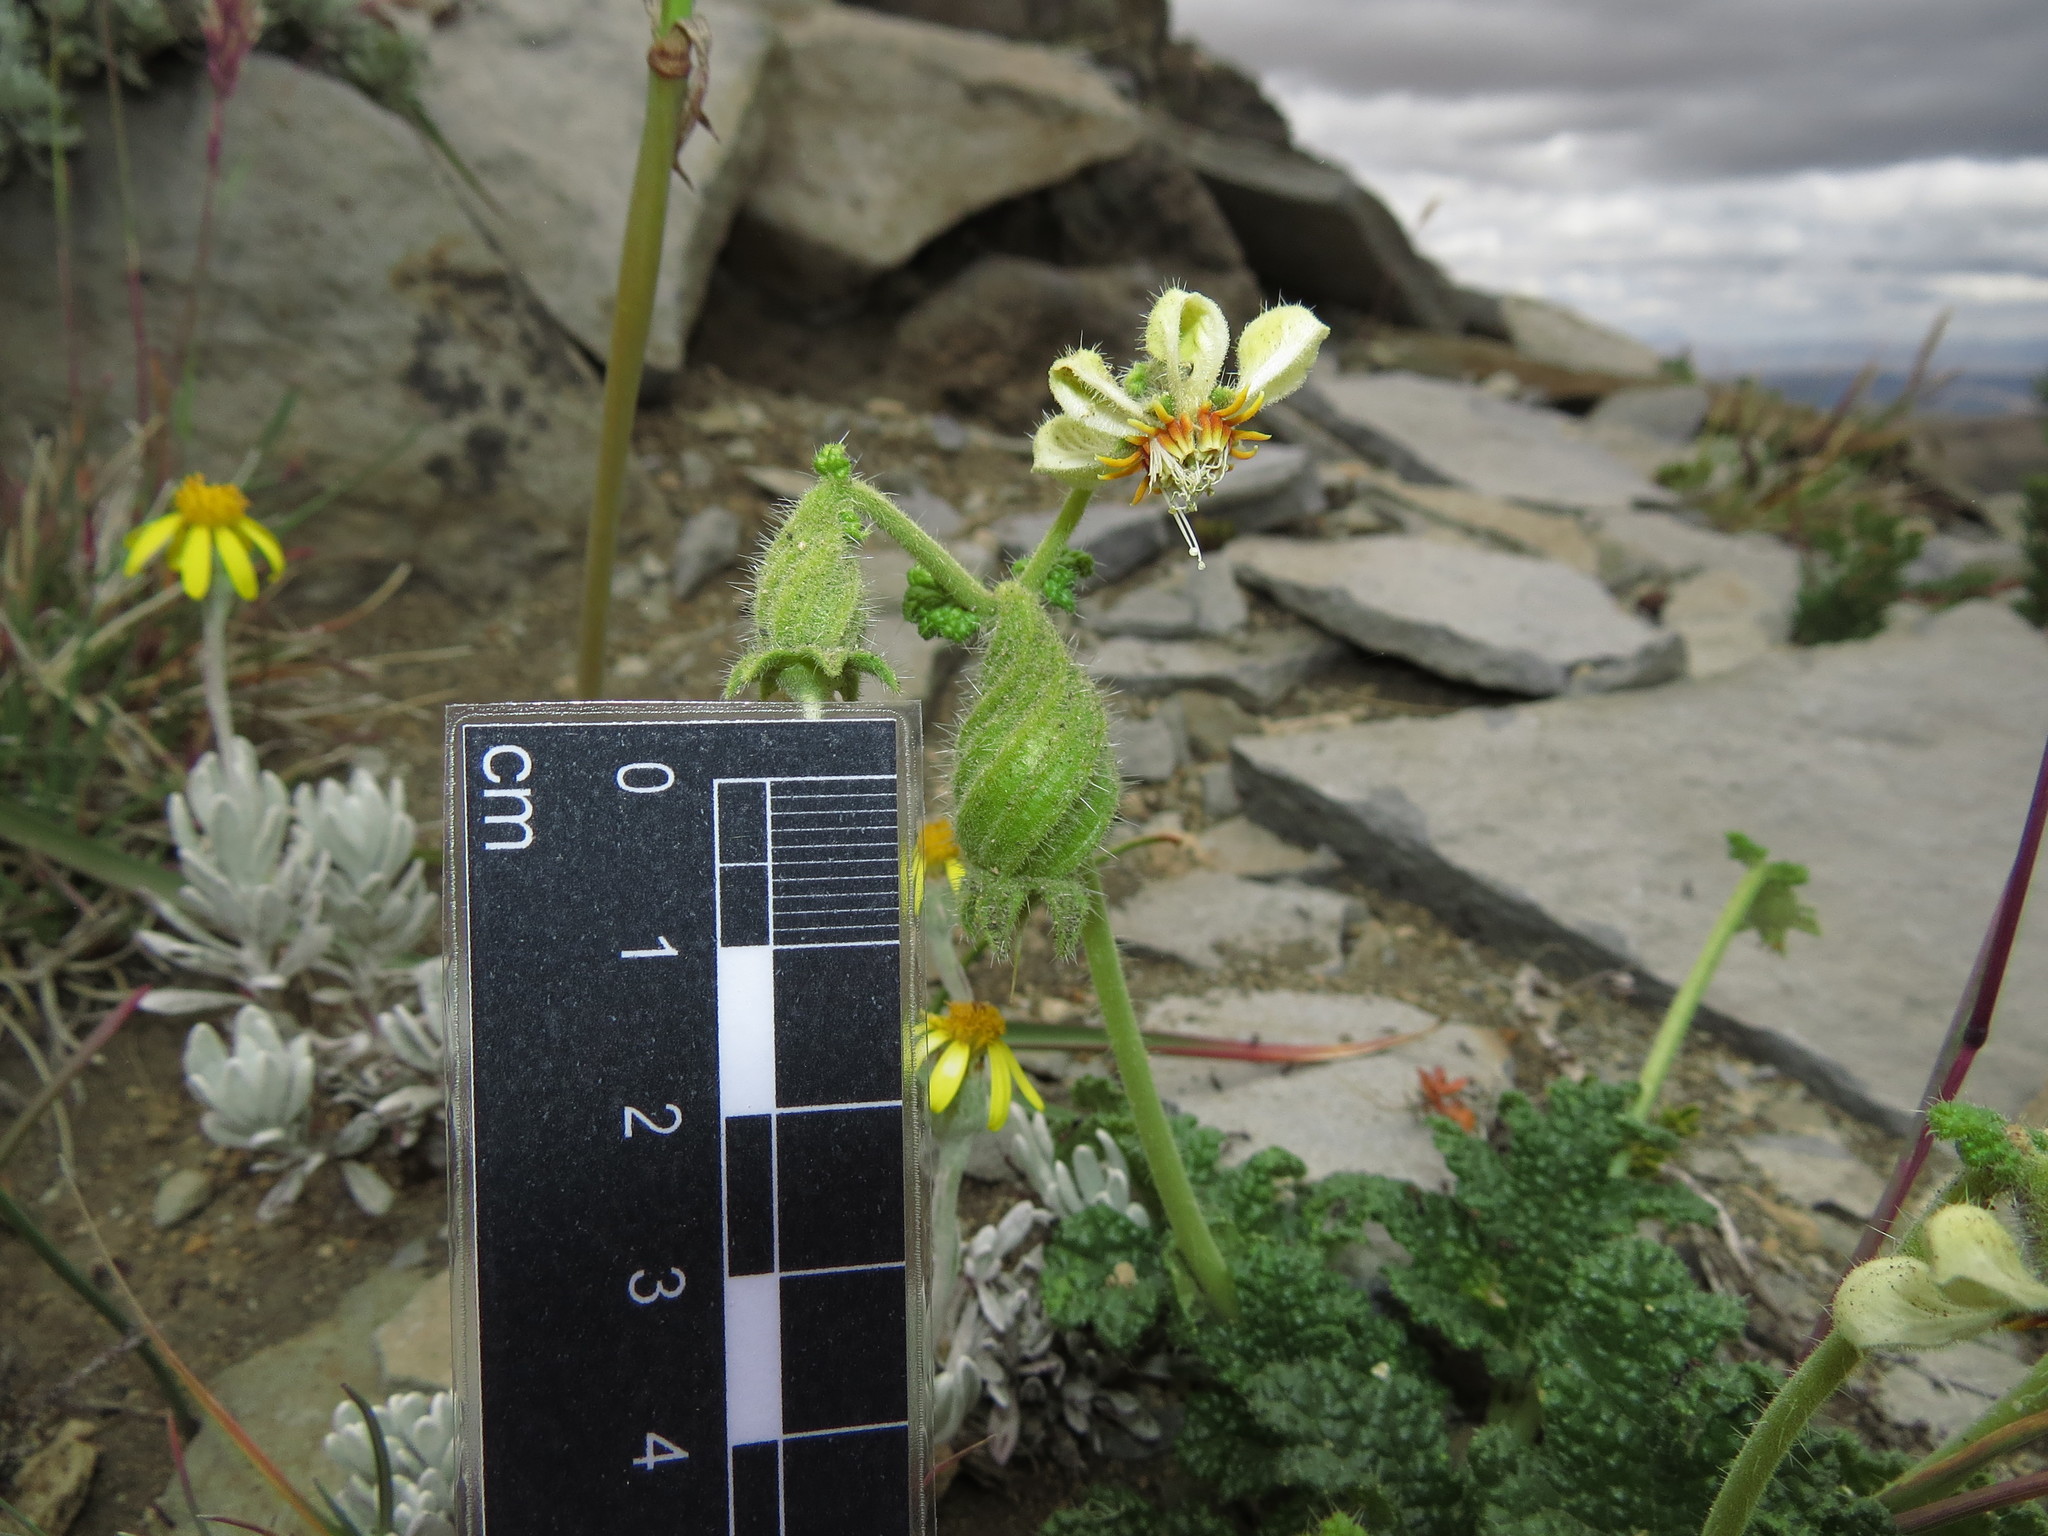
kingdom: Plantae
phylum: Tracheophyta
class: Magnoliopsida
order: Cornales
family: Loasaceae
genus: Blumenbachia
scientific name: Blumenbachia prietea
